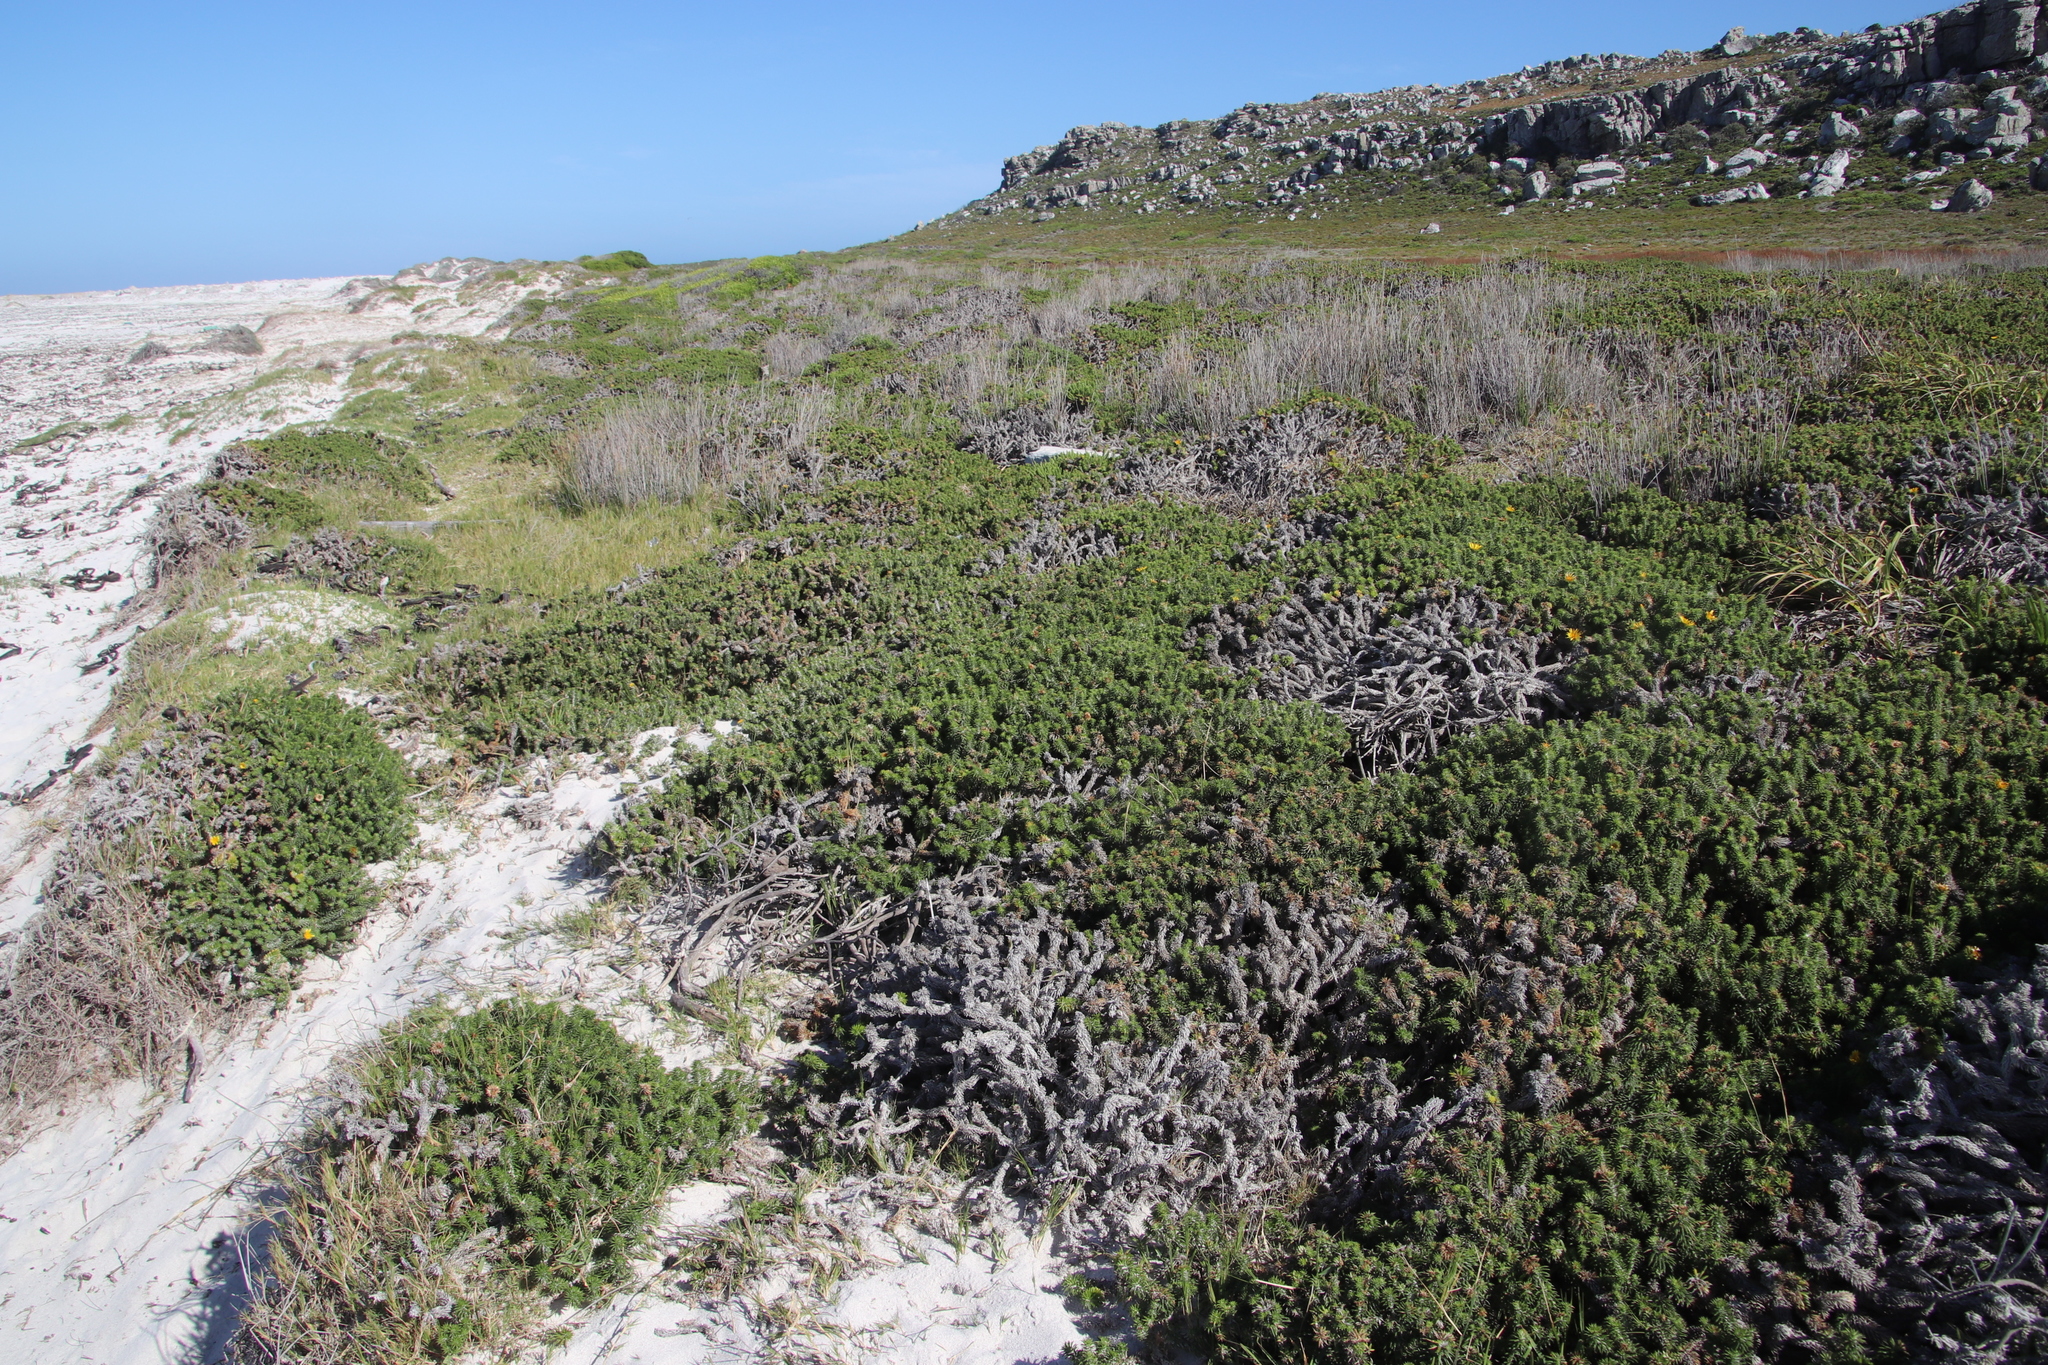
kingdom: Plantae
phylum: Tracheophyta
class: Magnoliopsida
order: Asterales
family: Asteraceae
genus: Cullumia
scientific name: Cullumia squarrosa
